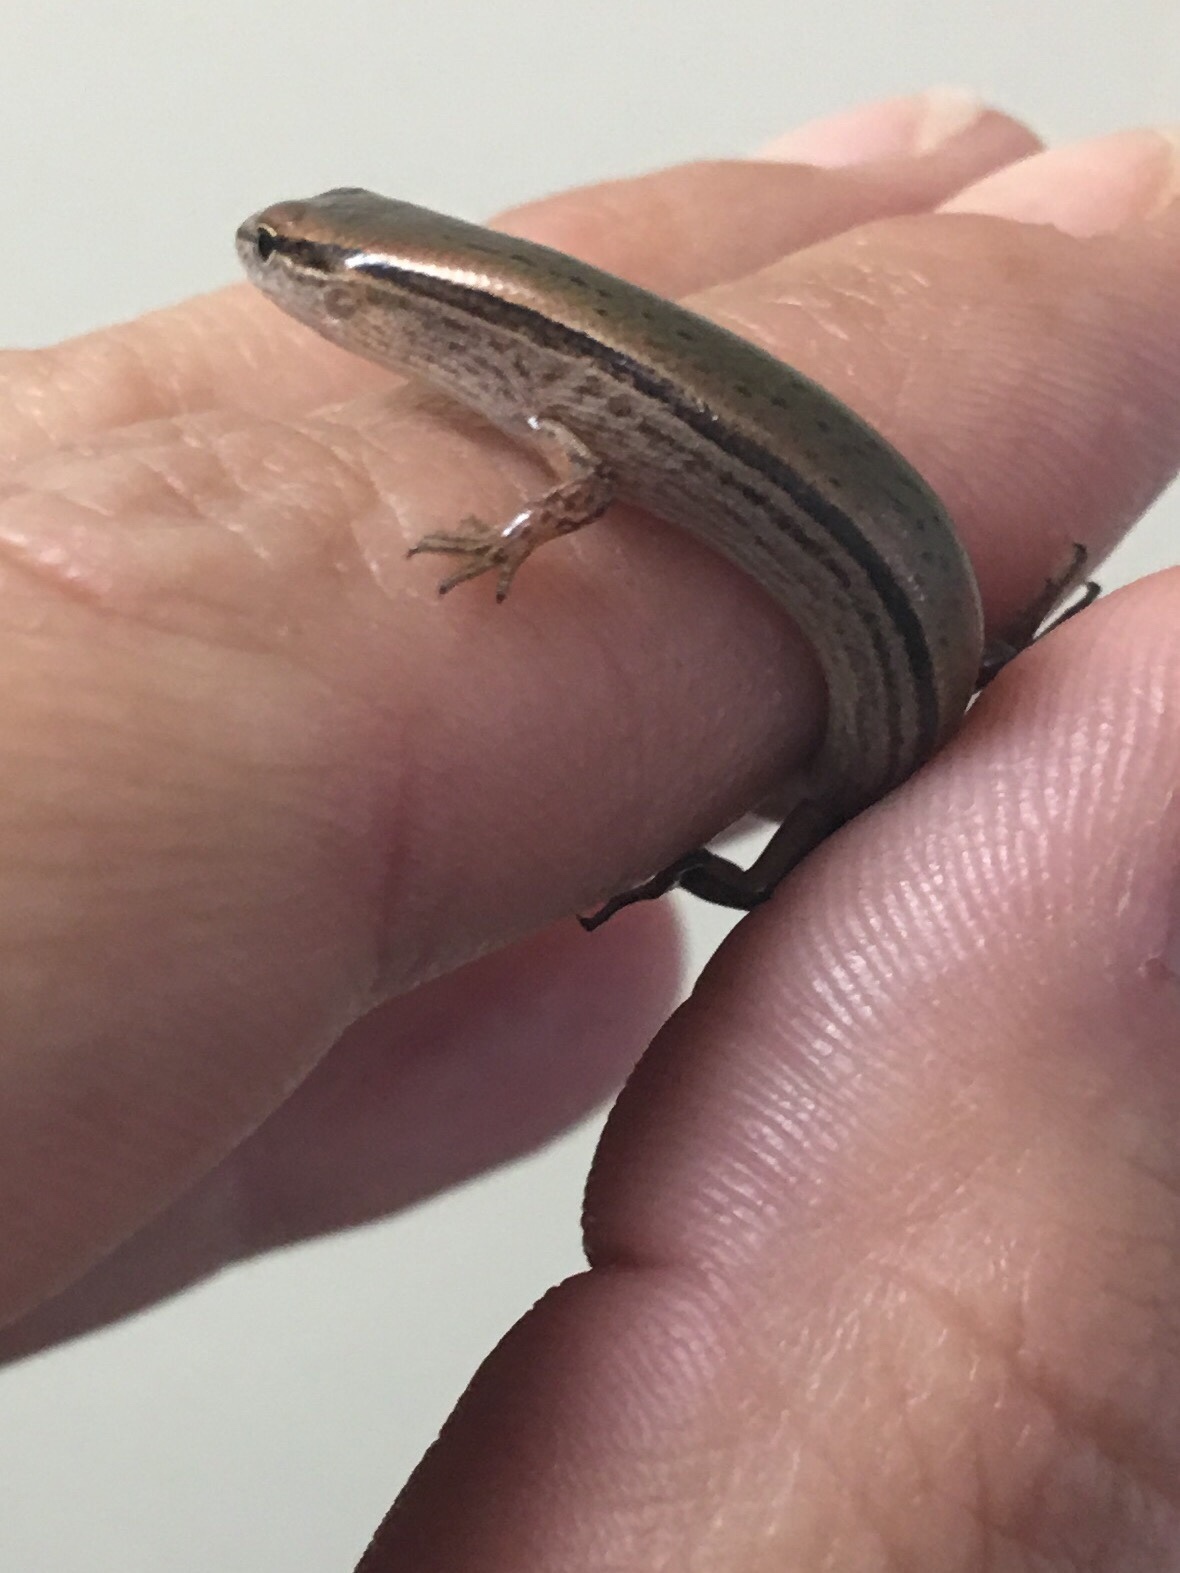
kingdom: Animalia
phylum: Chordata
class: Squamata
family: Scincidae
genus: Scincella
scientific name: Scincella lateralis
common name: Ground skink
